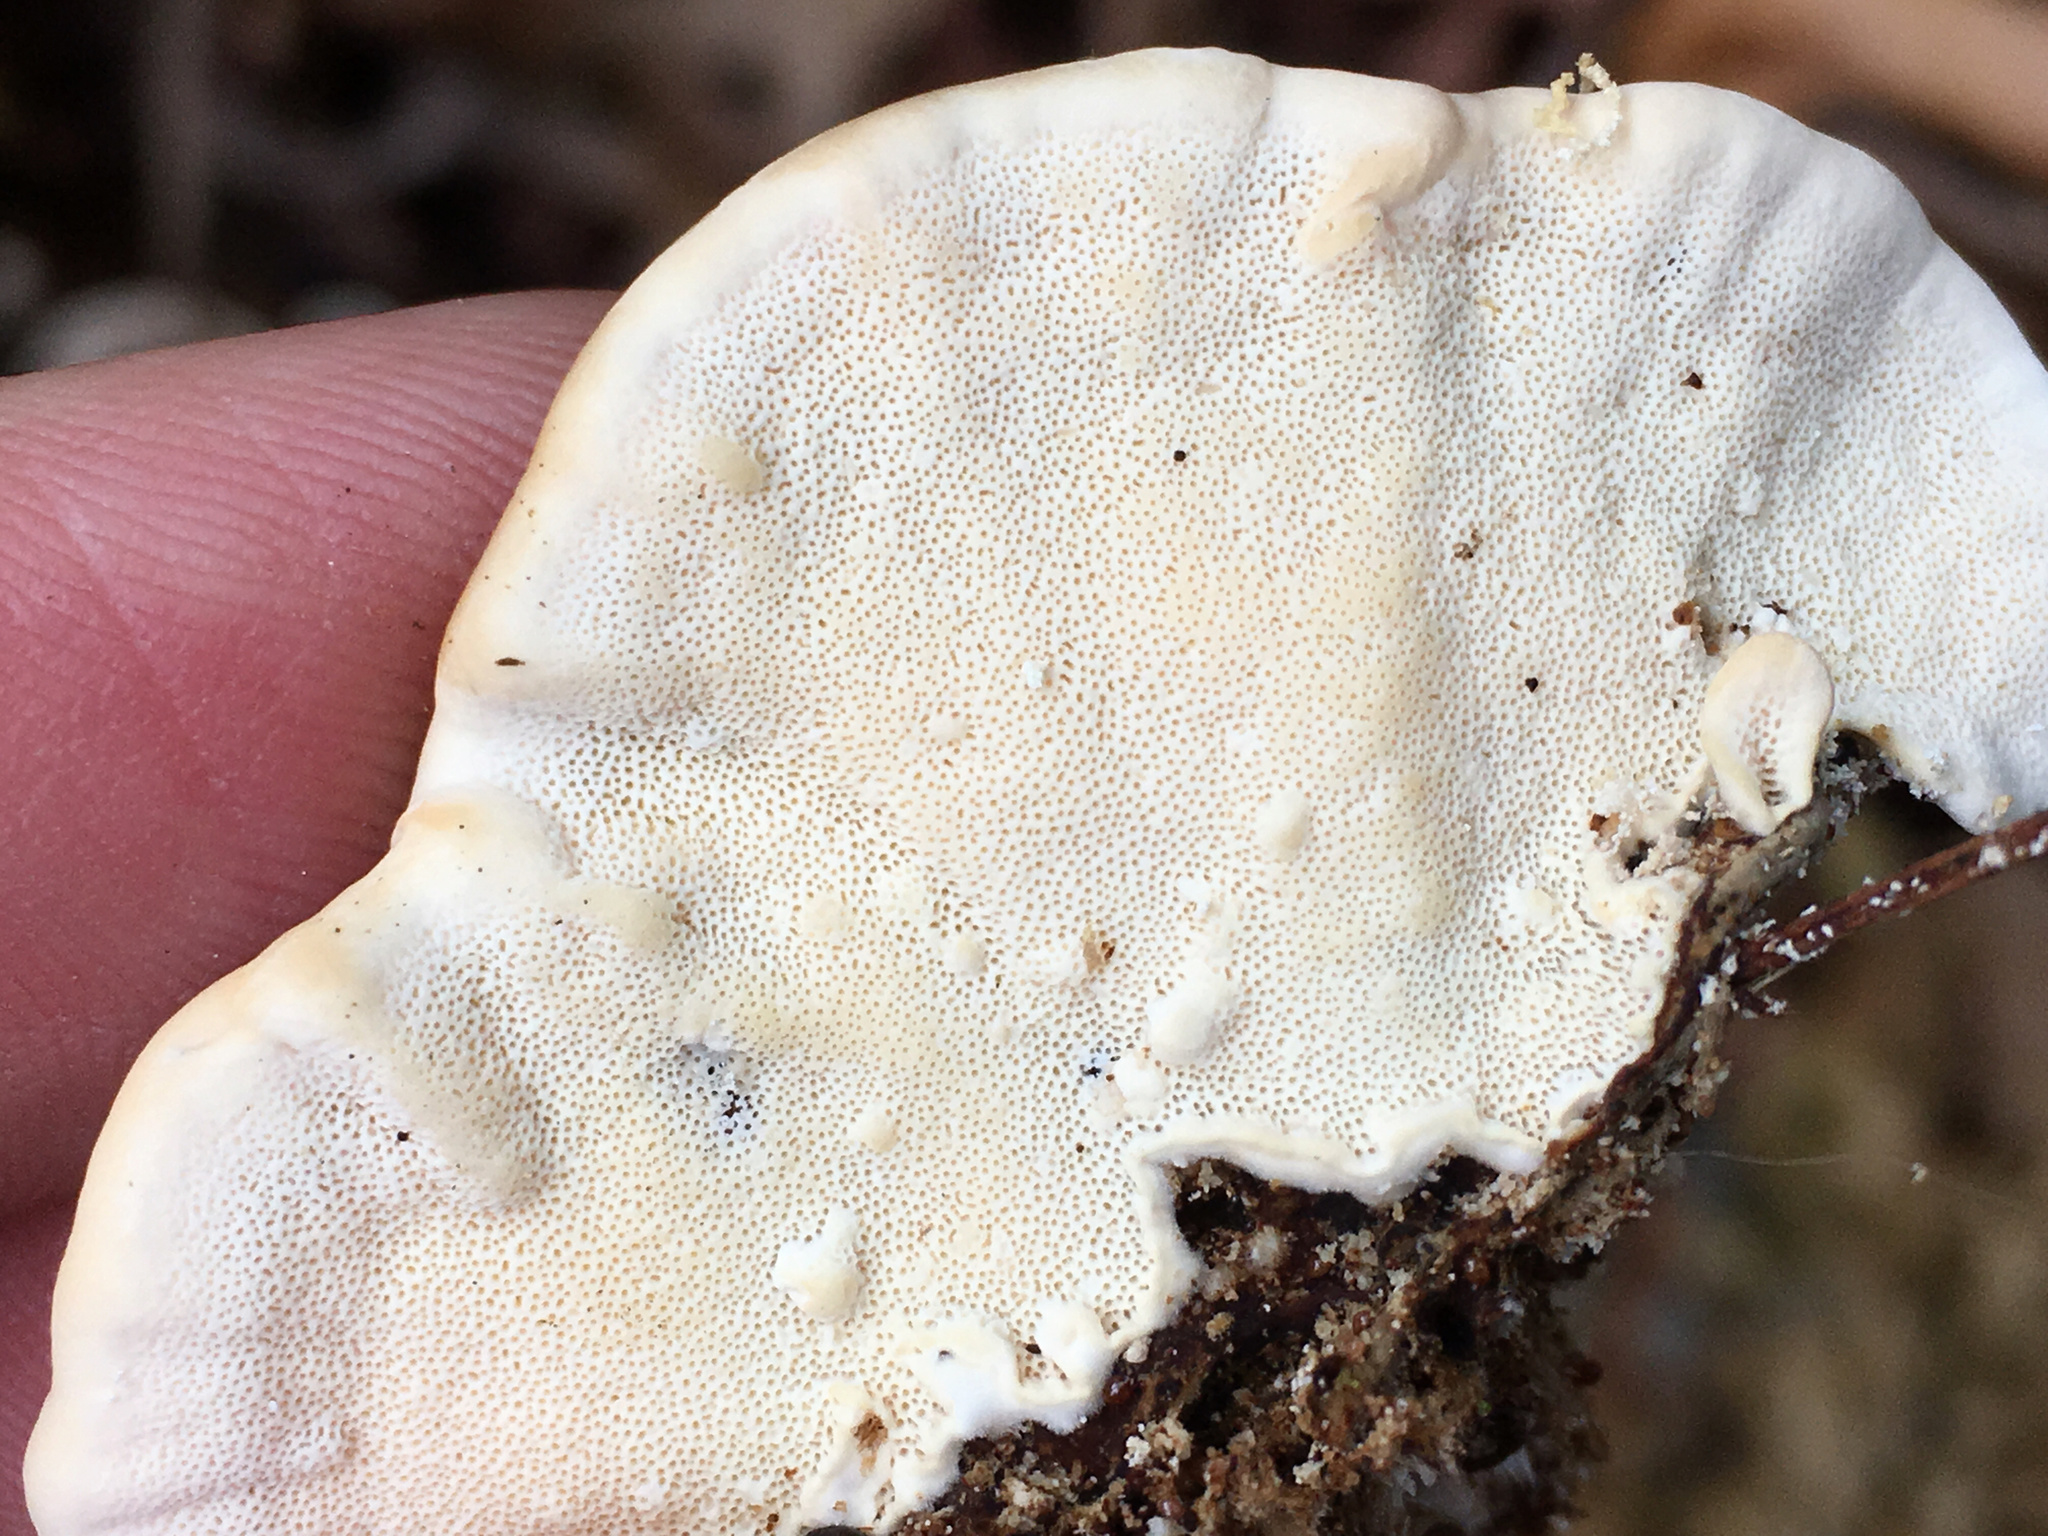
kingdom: Fungi
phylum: Basidiomycota
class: Agaricomycetes
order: Polyporales
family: Polyporaceae
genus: Trametes
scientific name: Trametes versicolor
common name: Turkeytail
